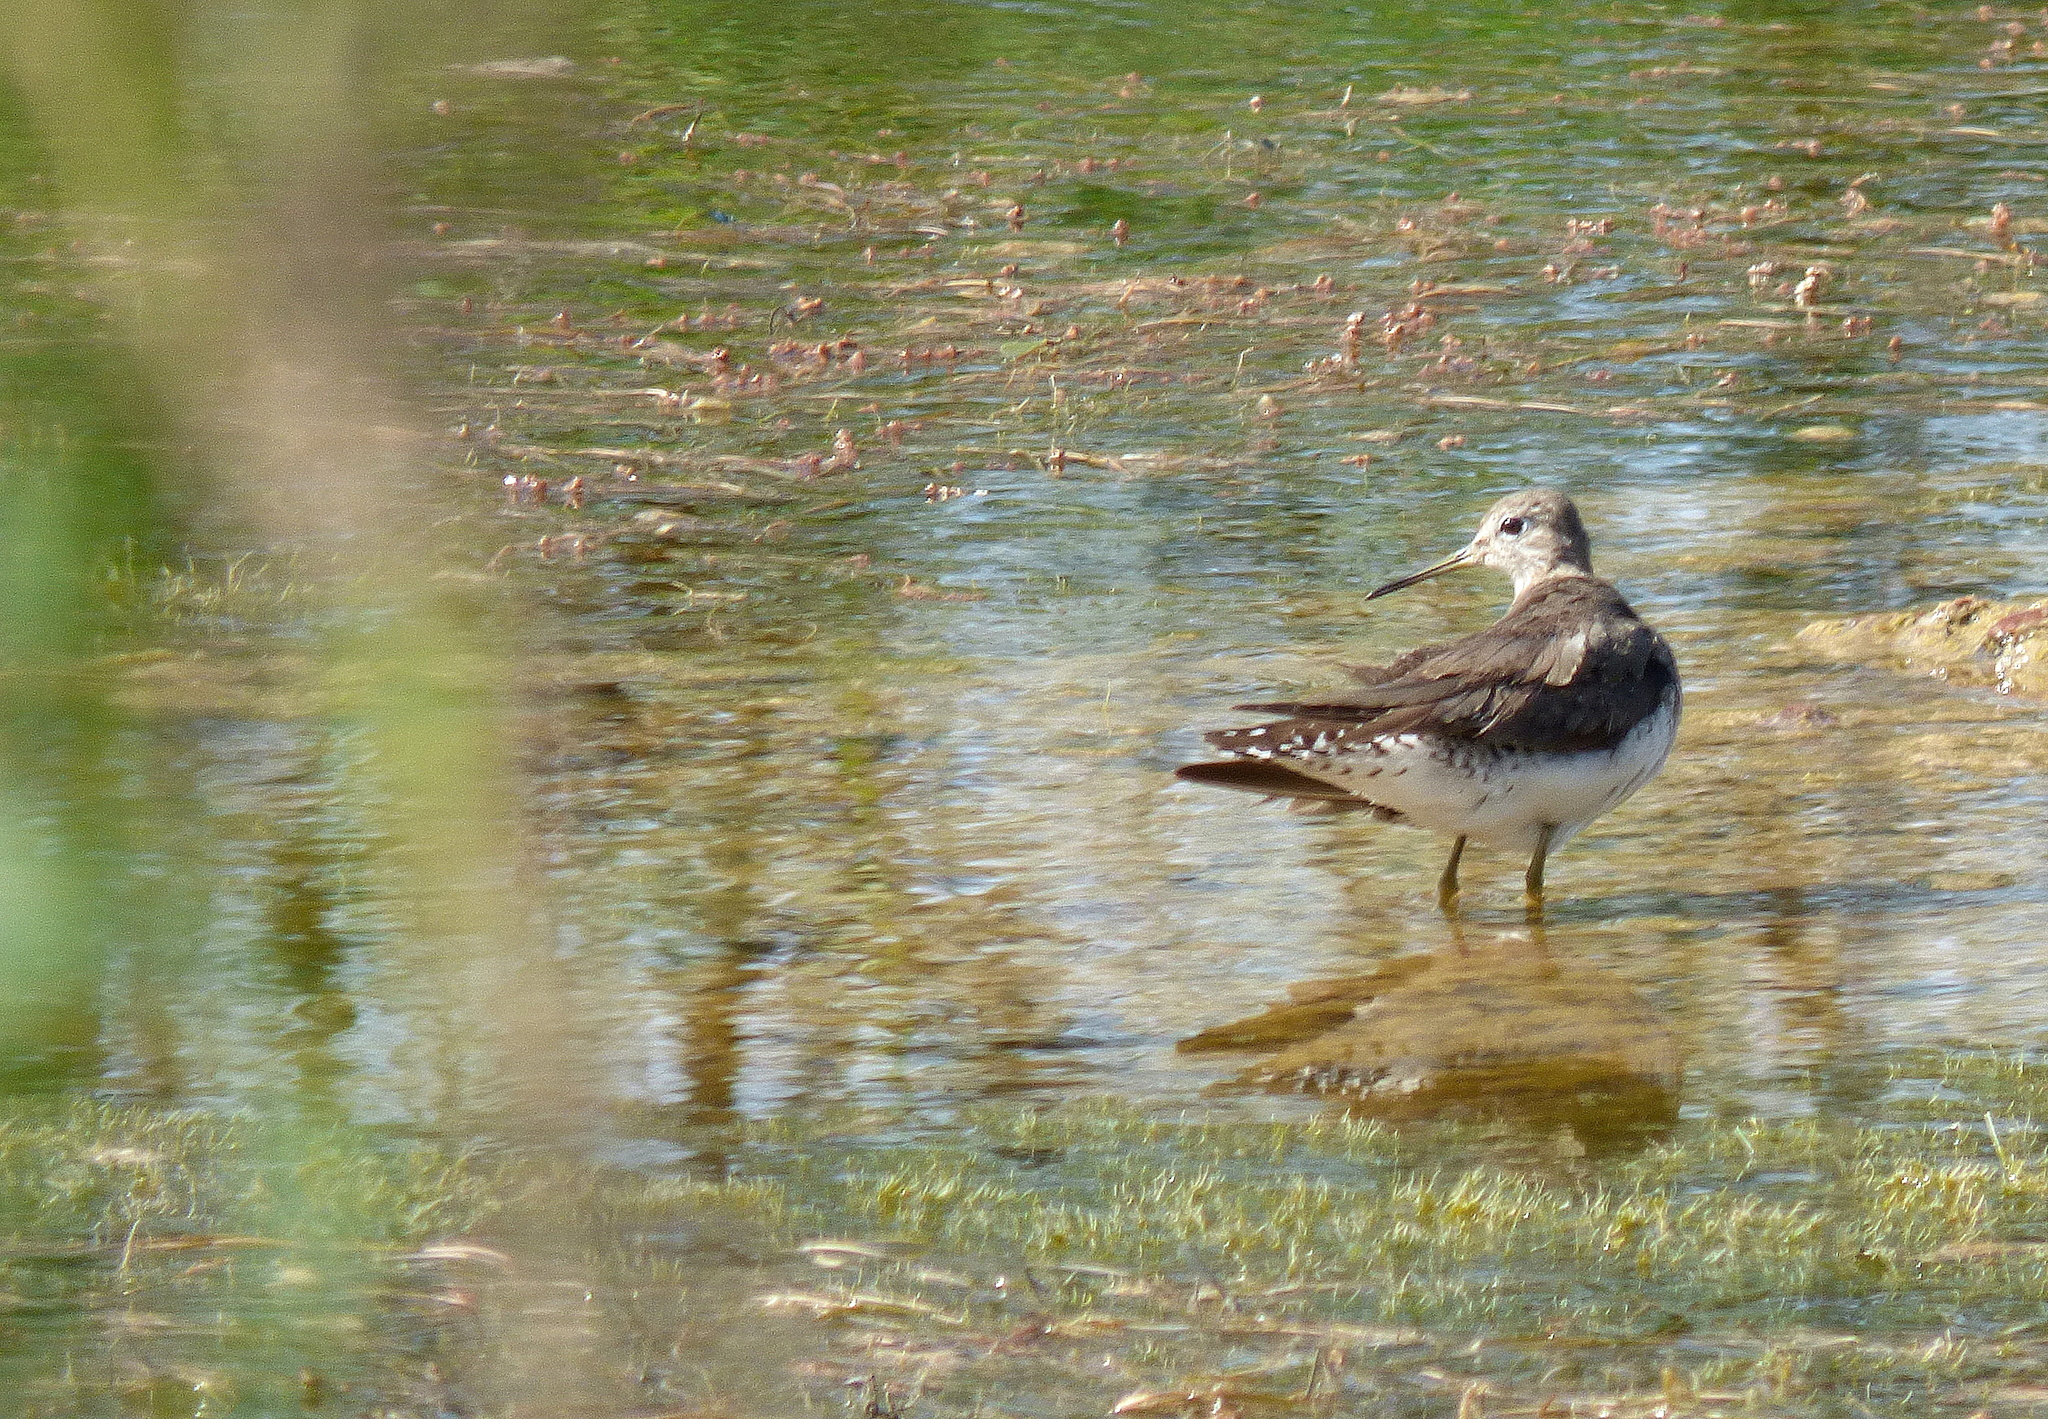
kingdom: Animalia
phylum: Chordata
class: Aves
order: Charadriiformes
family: Scolopacidae
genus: Tringa
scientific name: Tringa solitaria
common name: Solitary sandpiper
